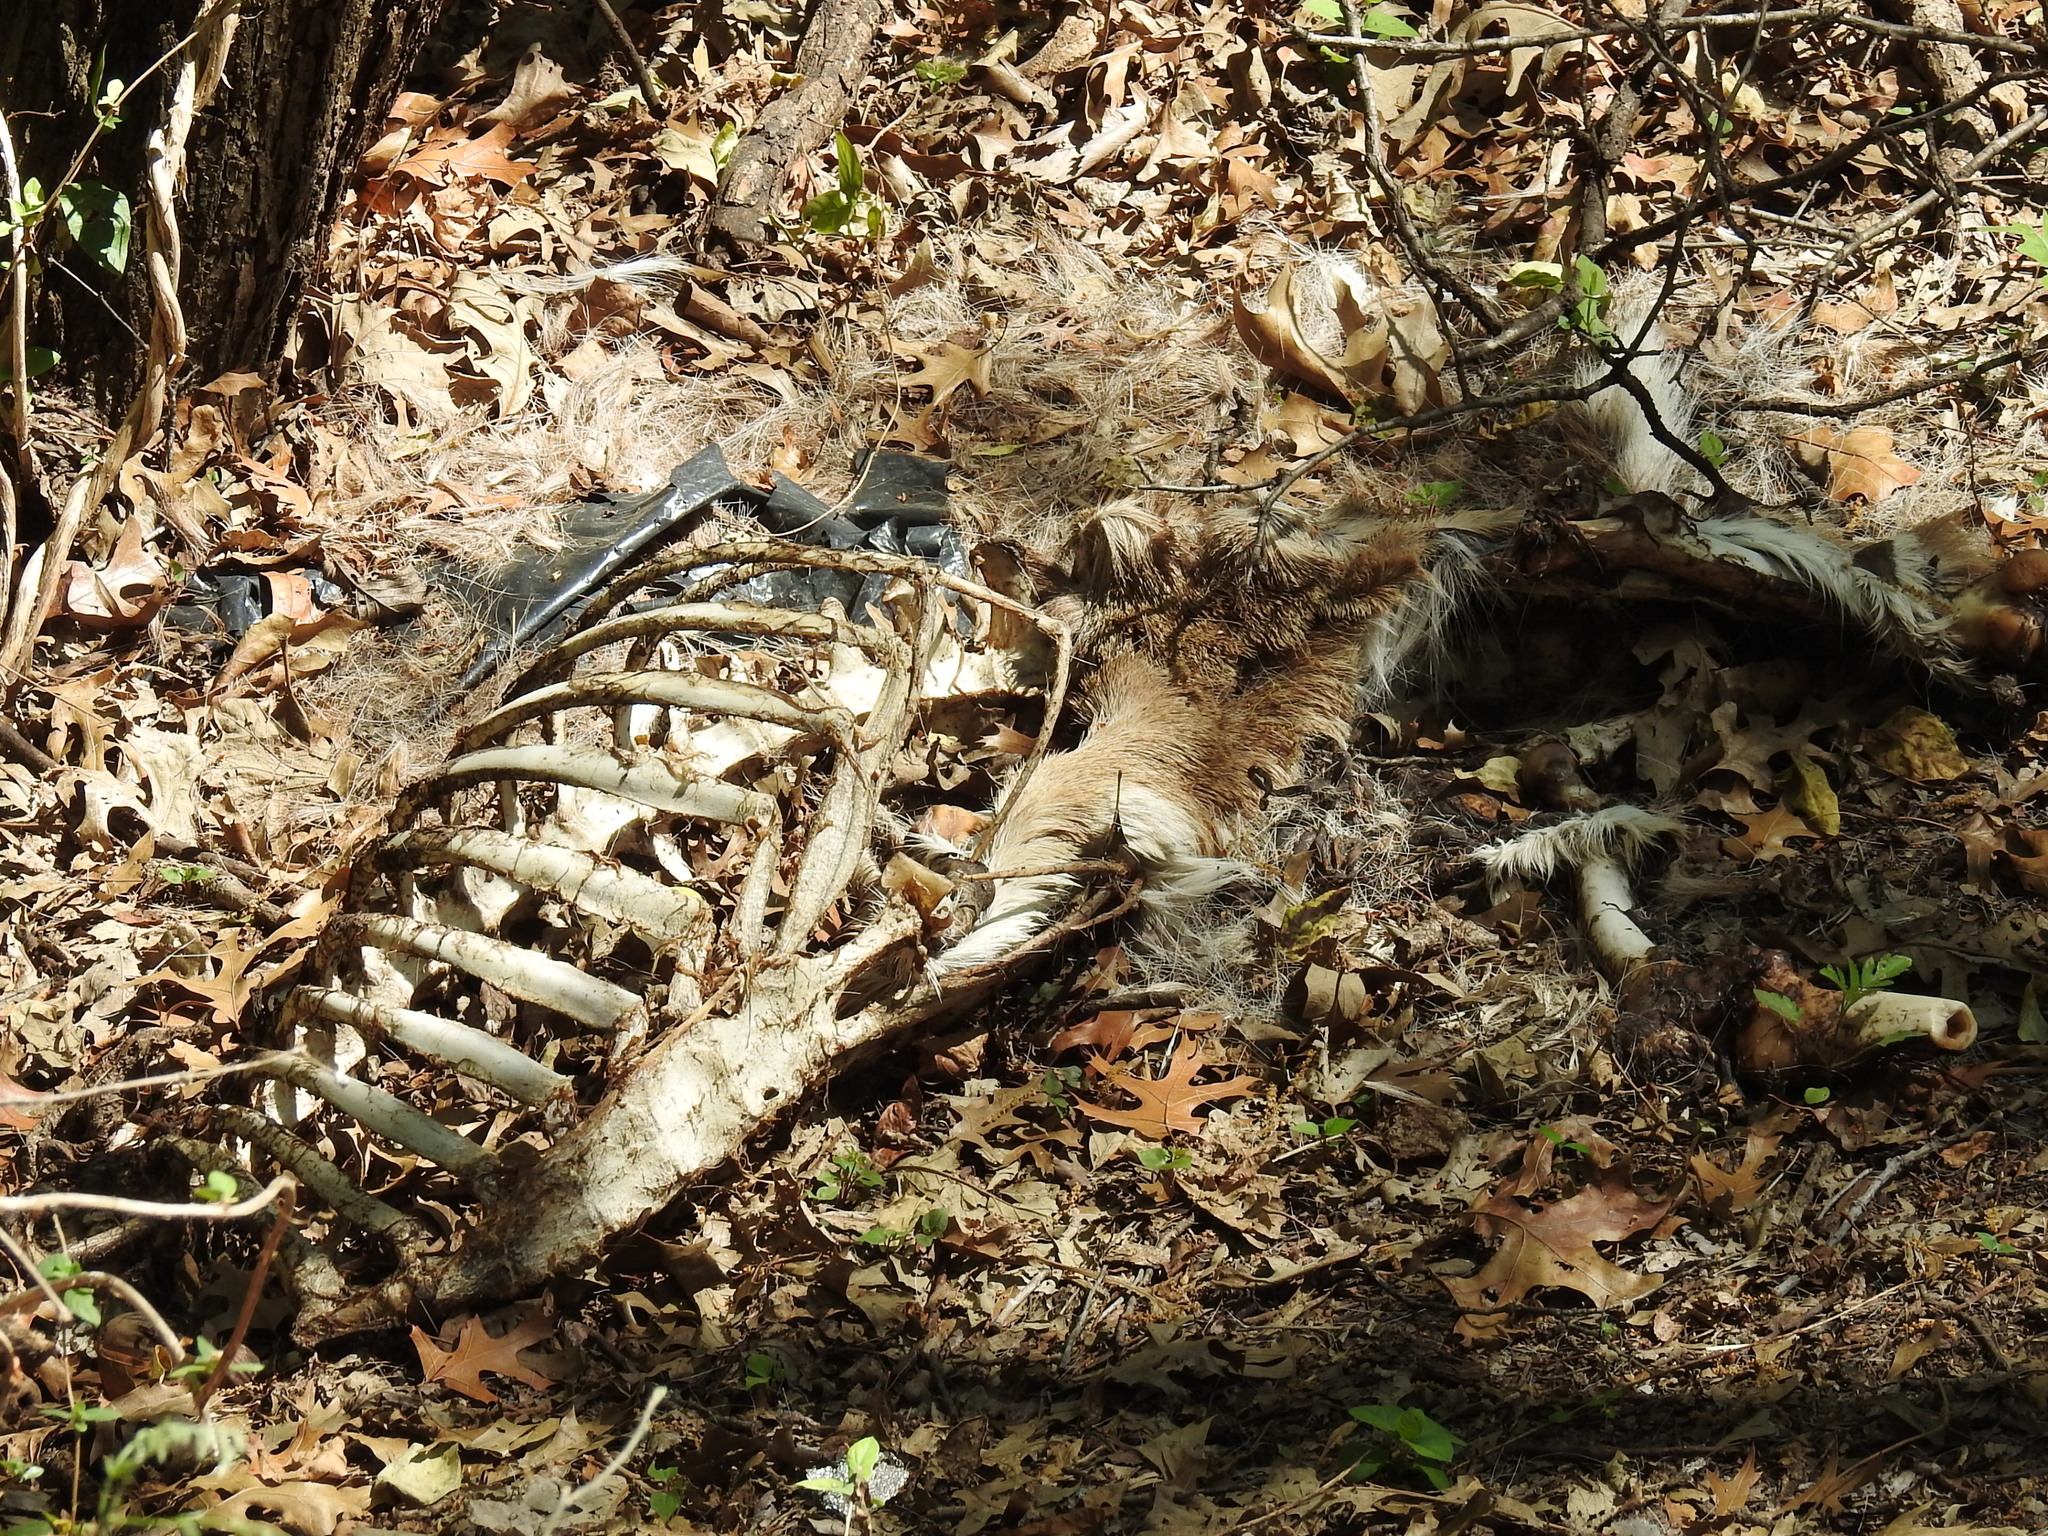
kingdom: Animalia
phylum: Chordata
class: Mammalia
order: Artiodactyla
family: Cervidae
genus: Odocoileus
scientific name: Odocoileus virginianus
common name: White-tailed deer
